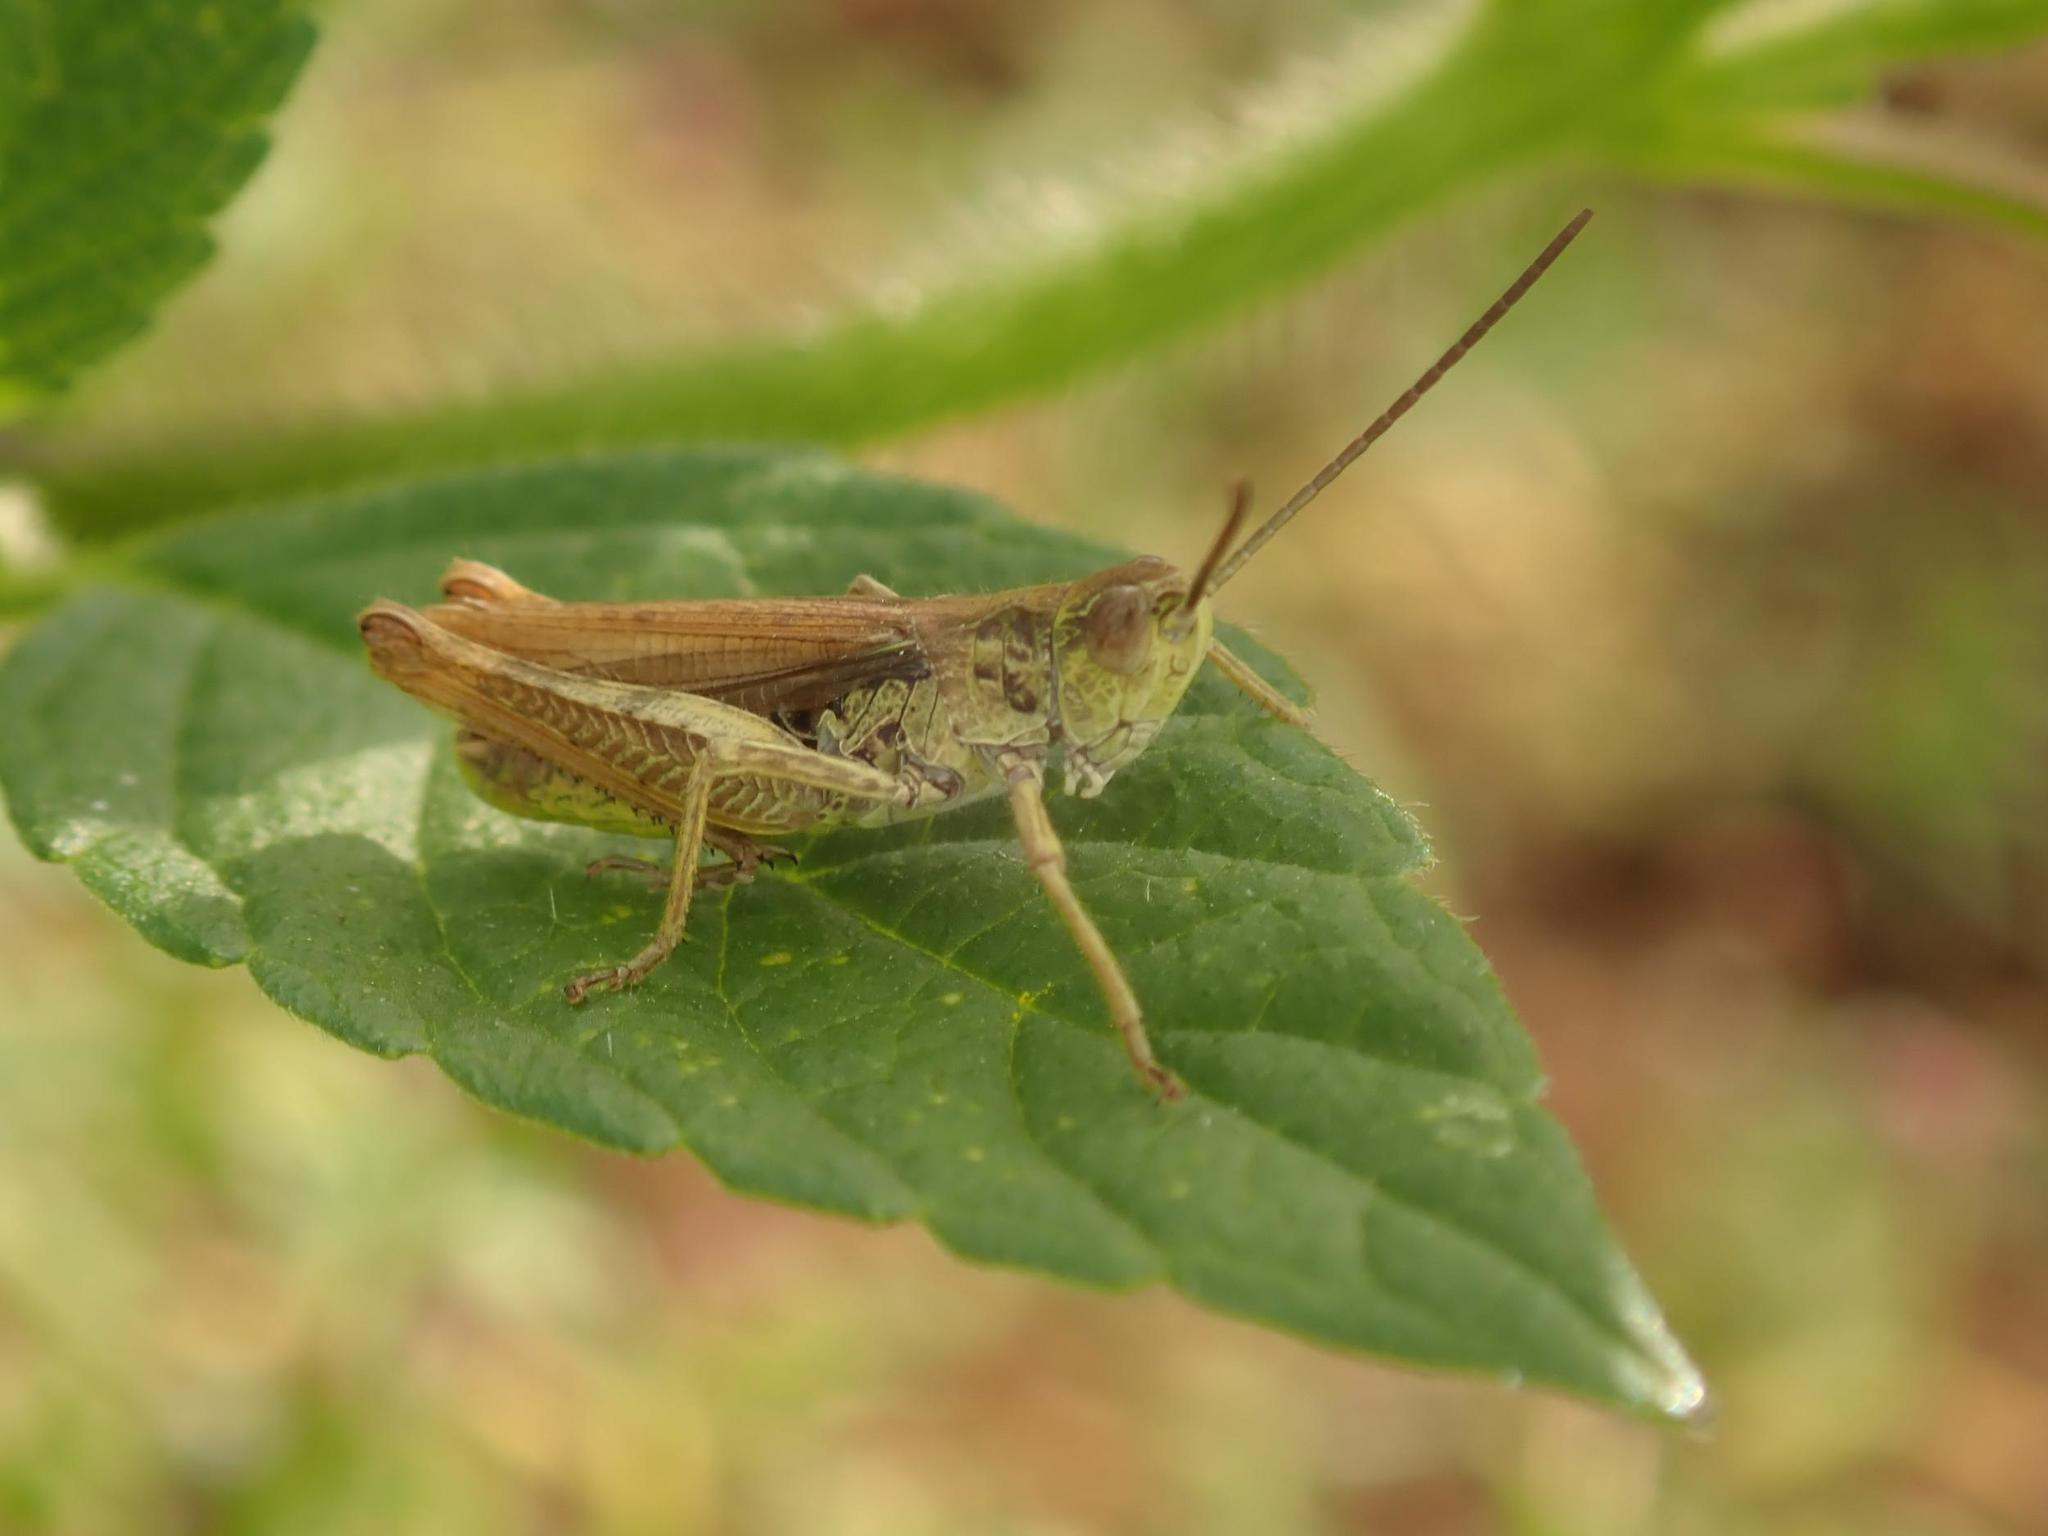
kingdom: Animalia
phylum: Arthropoda
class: Insecta
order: Orthoptera
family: Acrididae
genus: Chorthippus
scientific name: Chorthippus apricarius
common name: Upland field grasshopper
